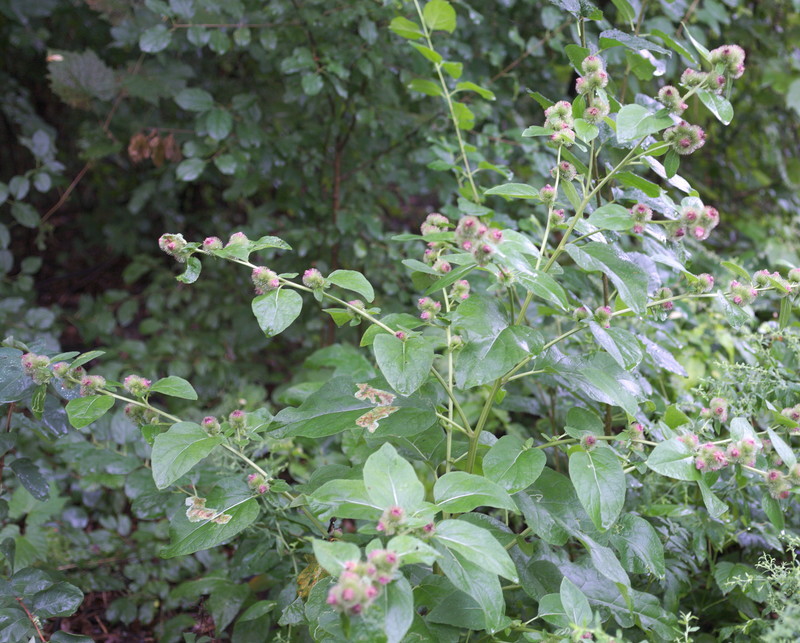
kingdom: Plantae
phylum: Tracheophyta
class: Magnoliopsida
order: Asterales
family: Asteraceae
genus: Arctium
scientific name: Arctium minus
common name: Lesser burdock
